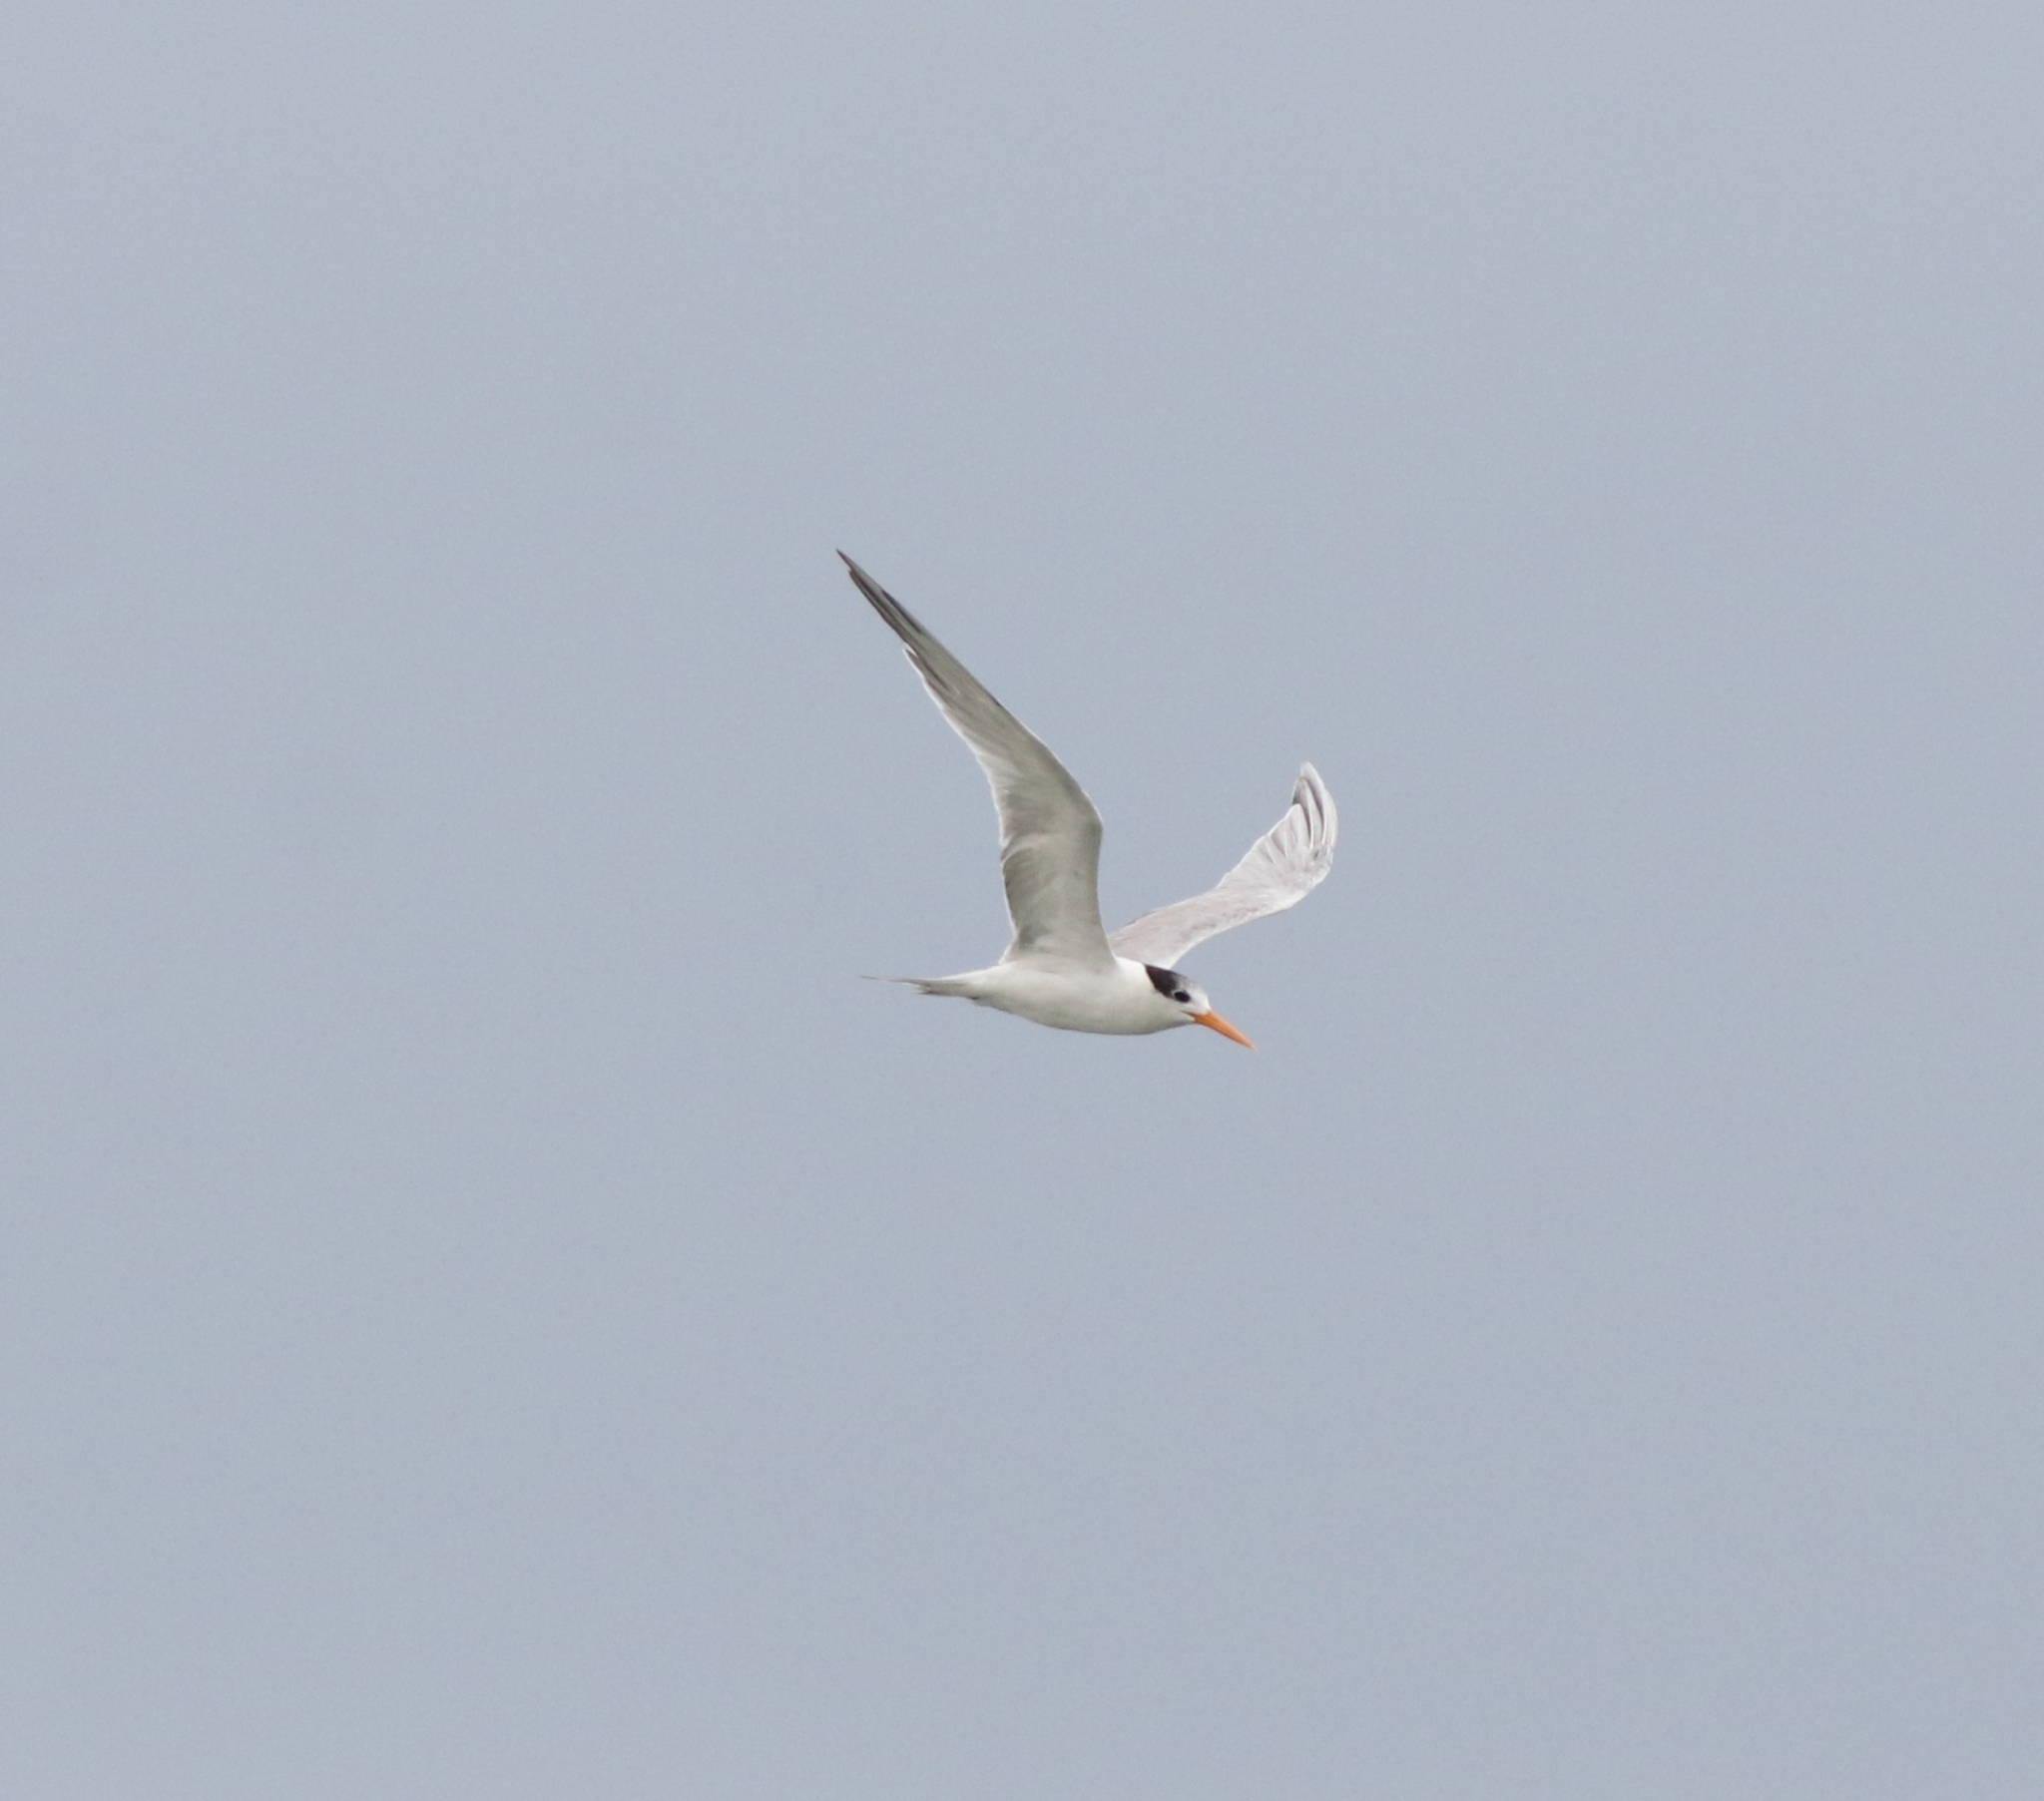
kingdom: Animalia
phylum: Chordata
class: Aves
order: Charadriiformes
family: Laridae
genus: Thalasseus
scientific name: Thalasseus bengalensis
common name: Lesser crested tern
